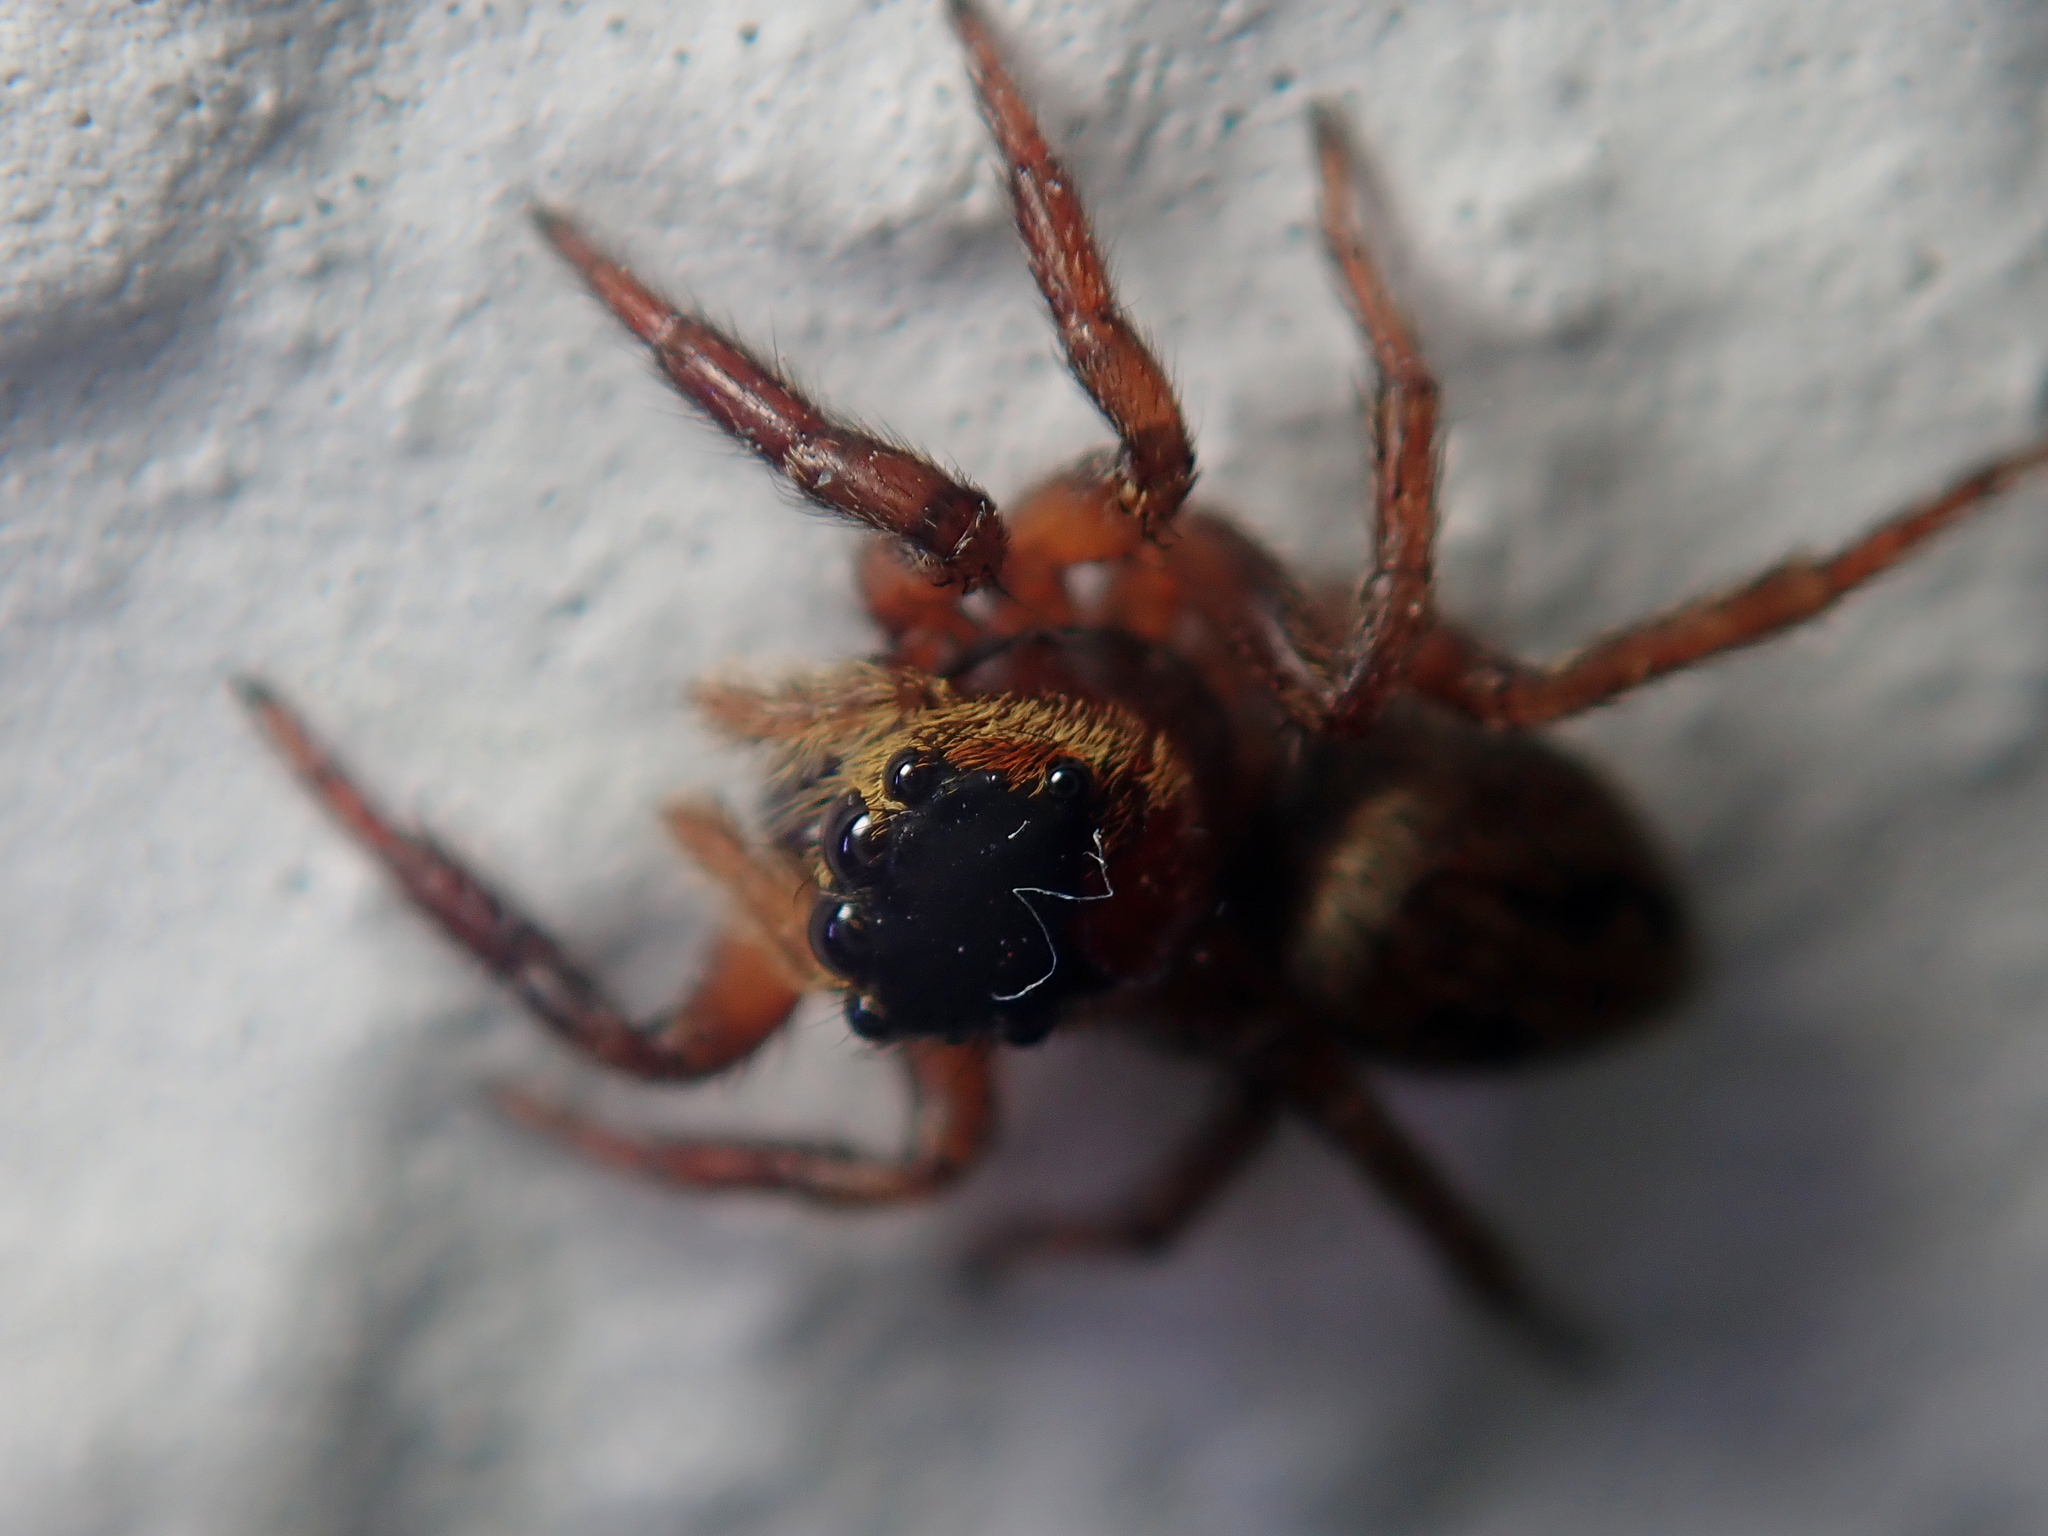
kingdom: Animalia
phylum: Arthropoda
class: Arachnida
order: Araneae
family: Salticidae
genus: Hasarius
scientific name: Hasarius adansoni
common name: Jumping spider
